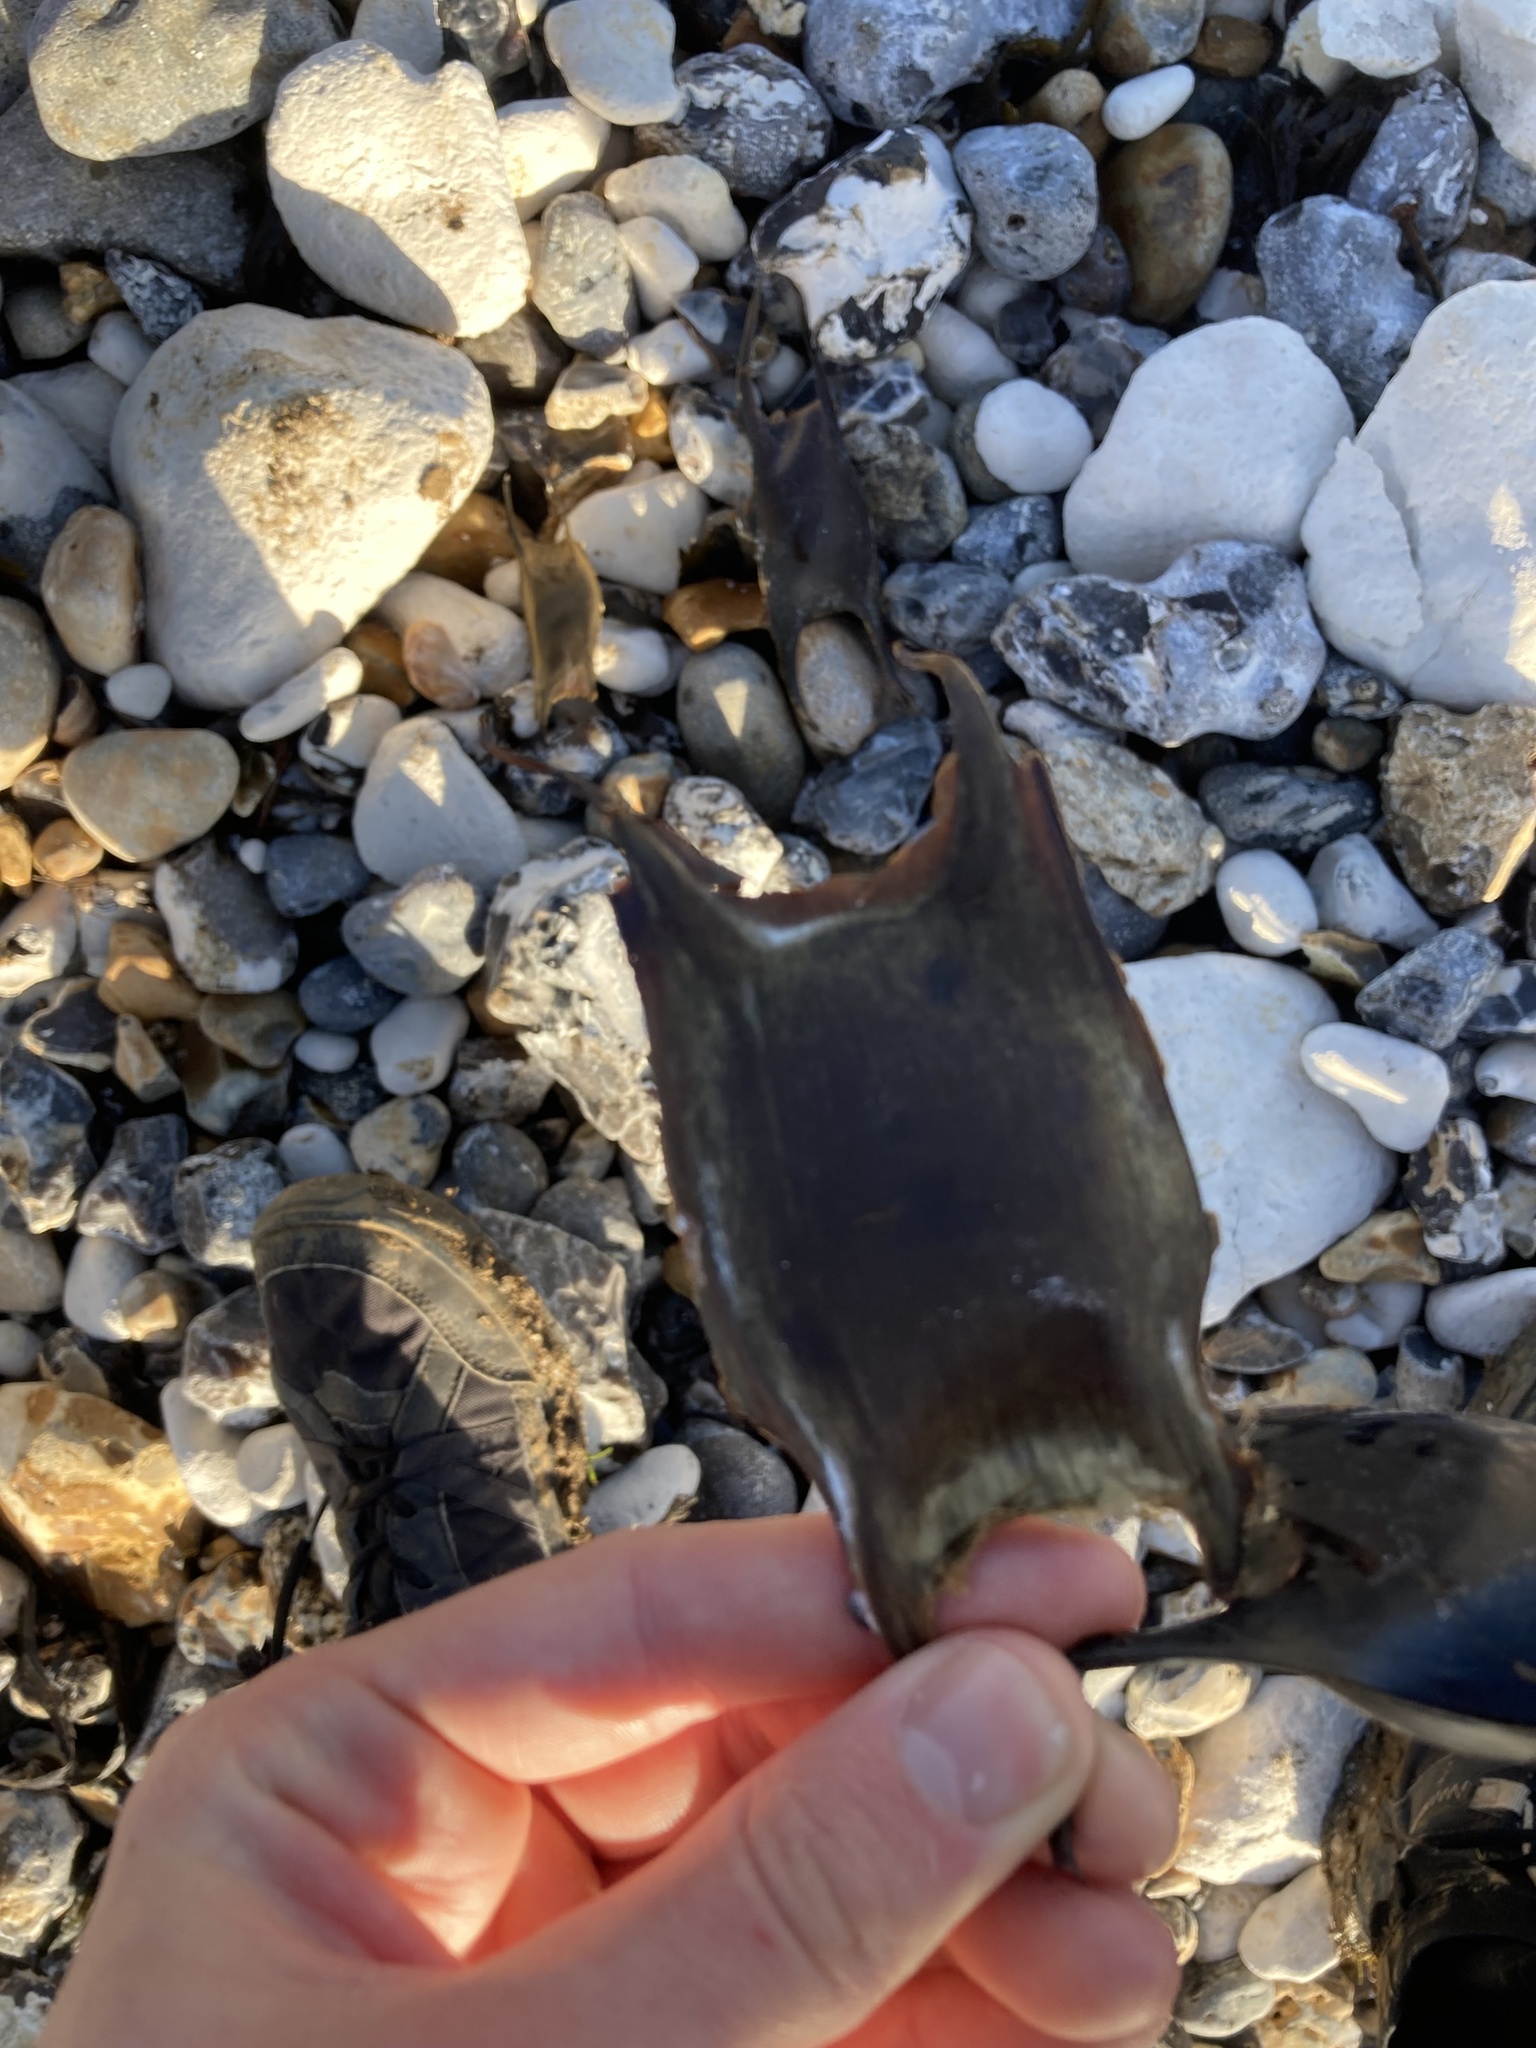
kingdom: Animalia
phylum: Chordata
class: Elasmobranchii
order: Rajiformes
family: Rajidae
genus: Raja
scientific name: Raja clavata
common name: Thornback ray
